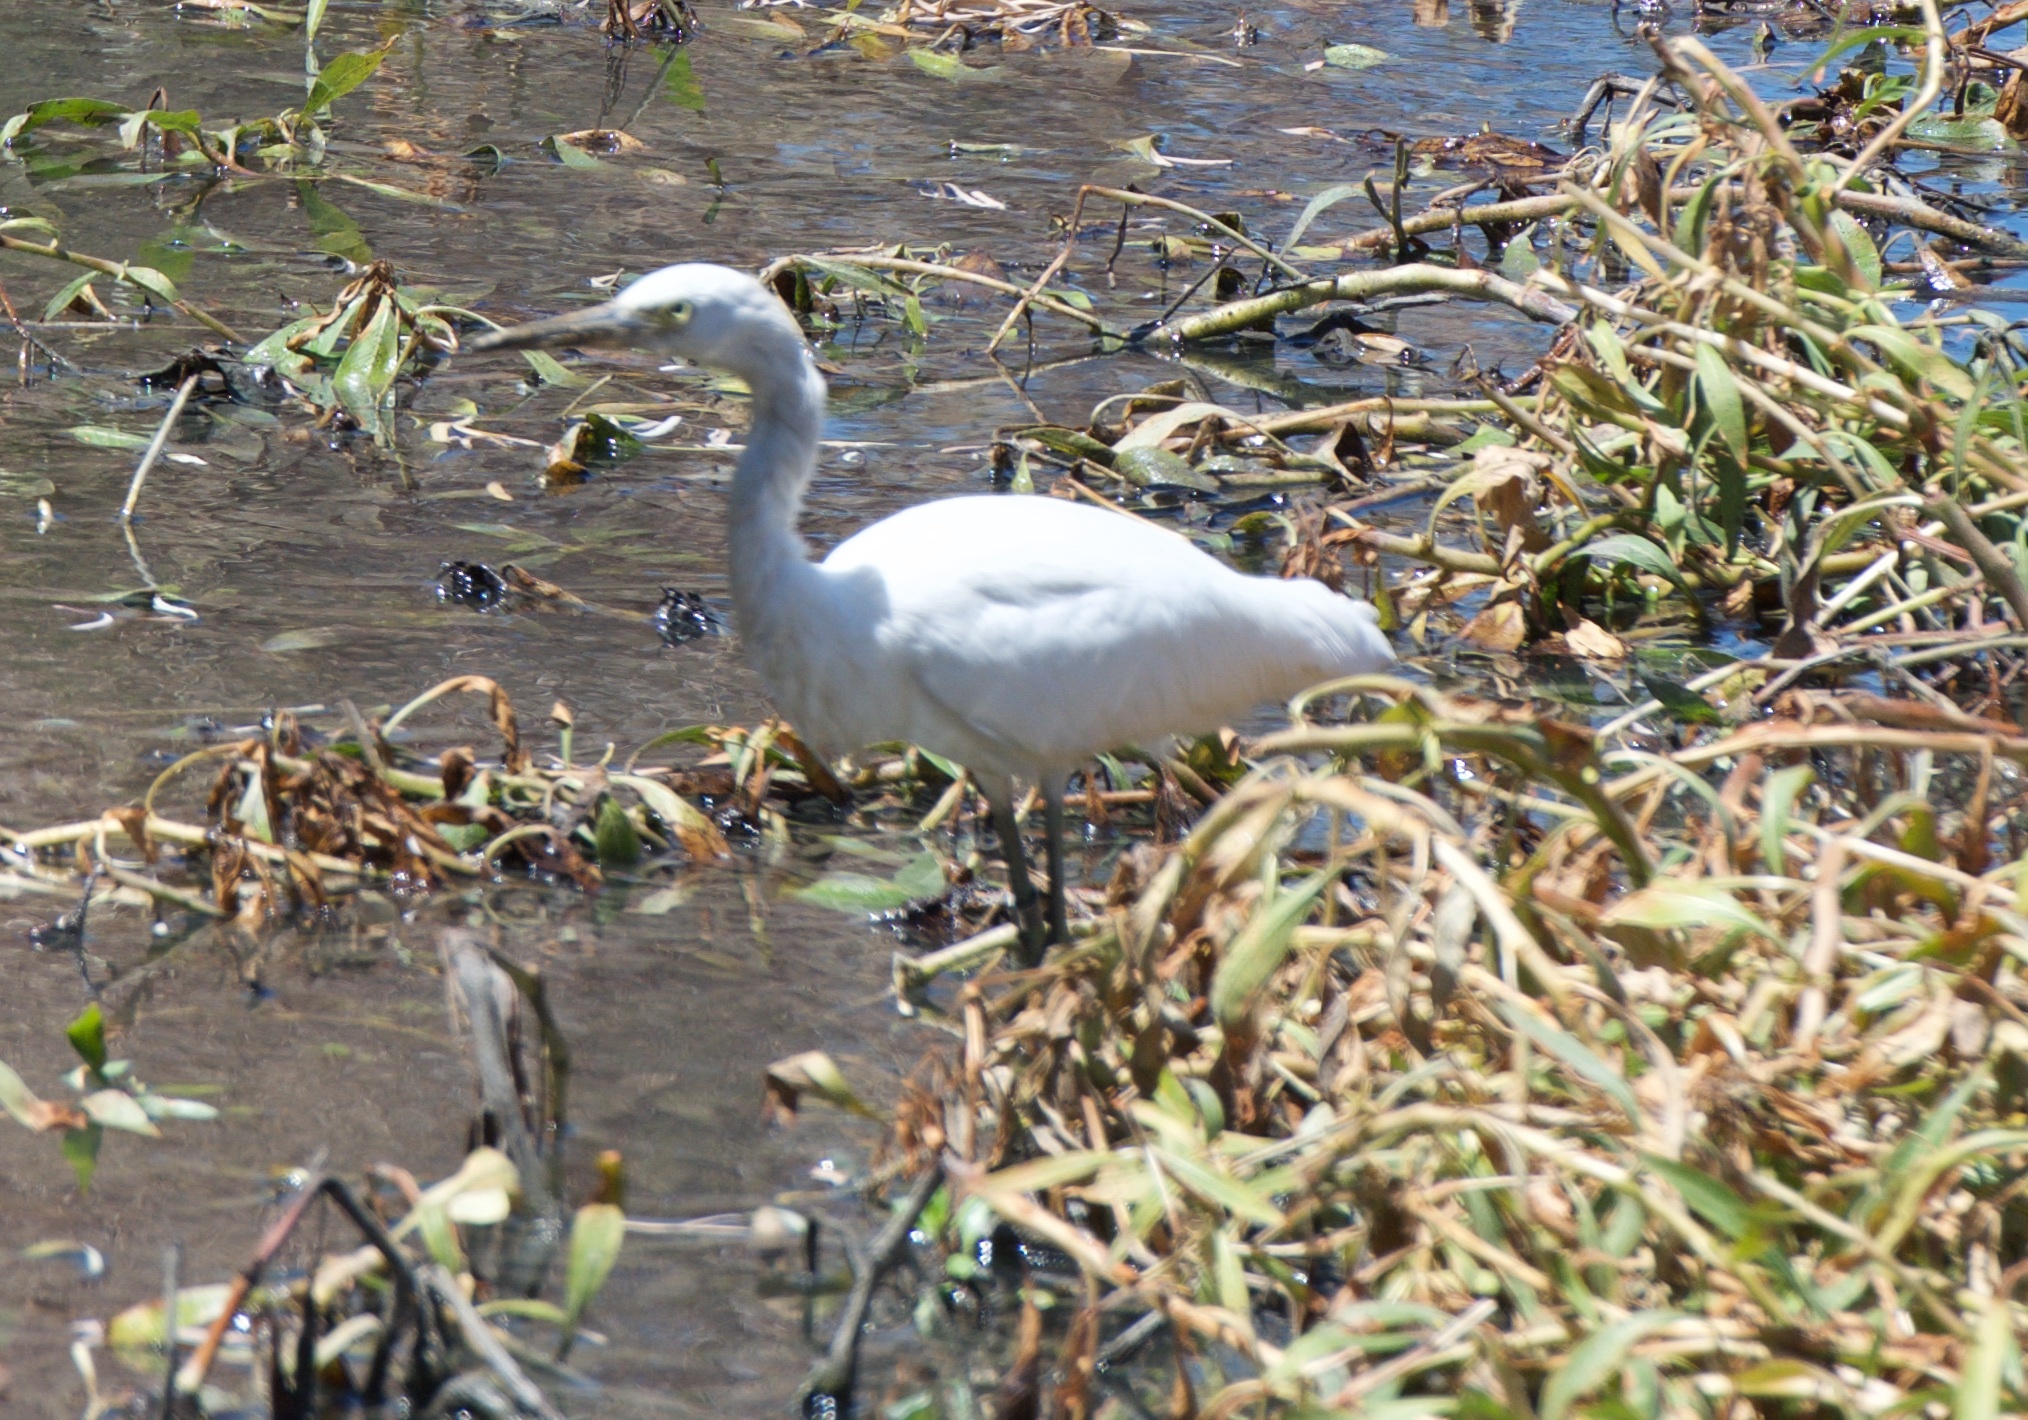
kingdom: Animalia
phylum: Chordata
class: Aves
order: Pelecaniformes
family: Ardeidae
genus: Egretta
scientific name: Egretta thula
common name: Snowy egret
